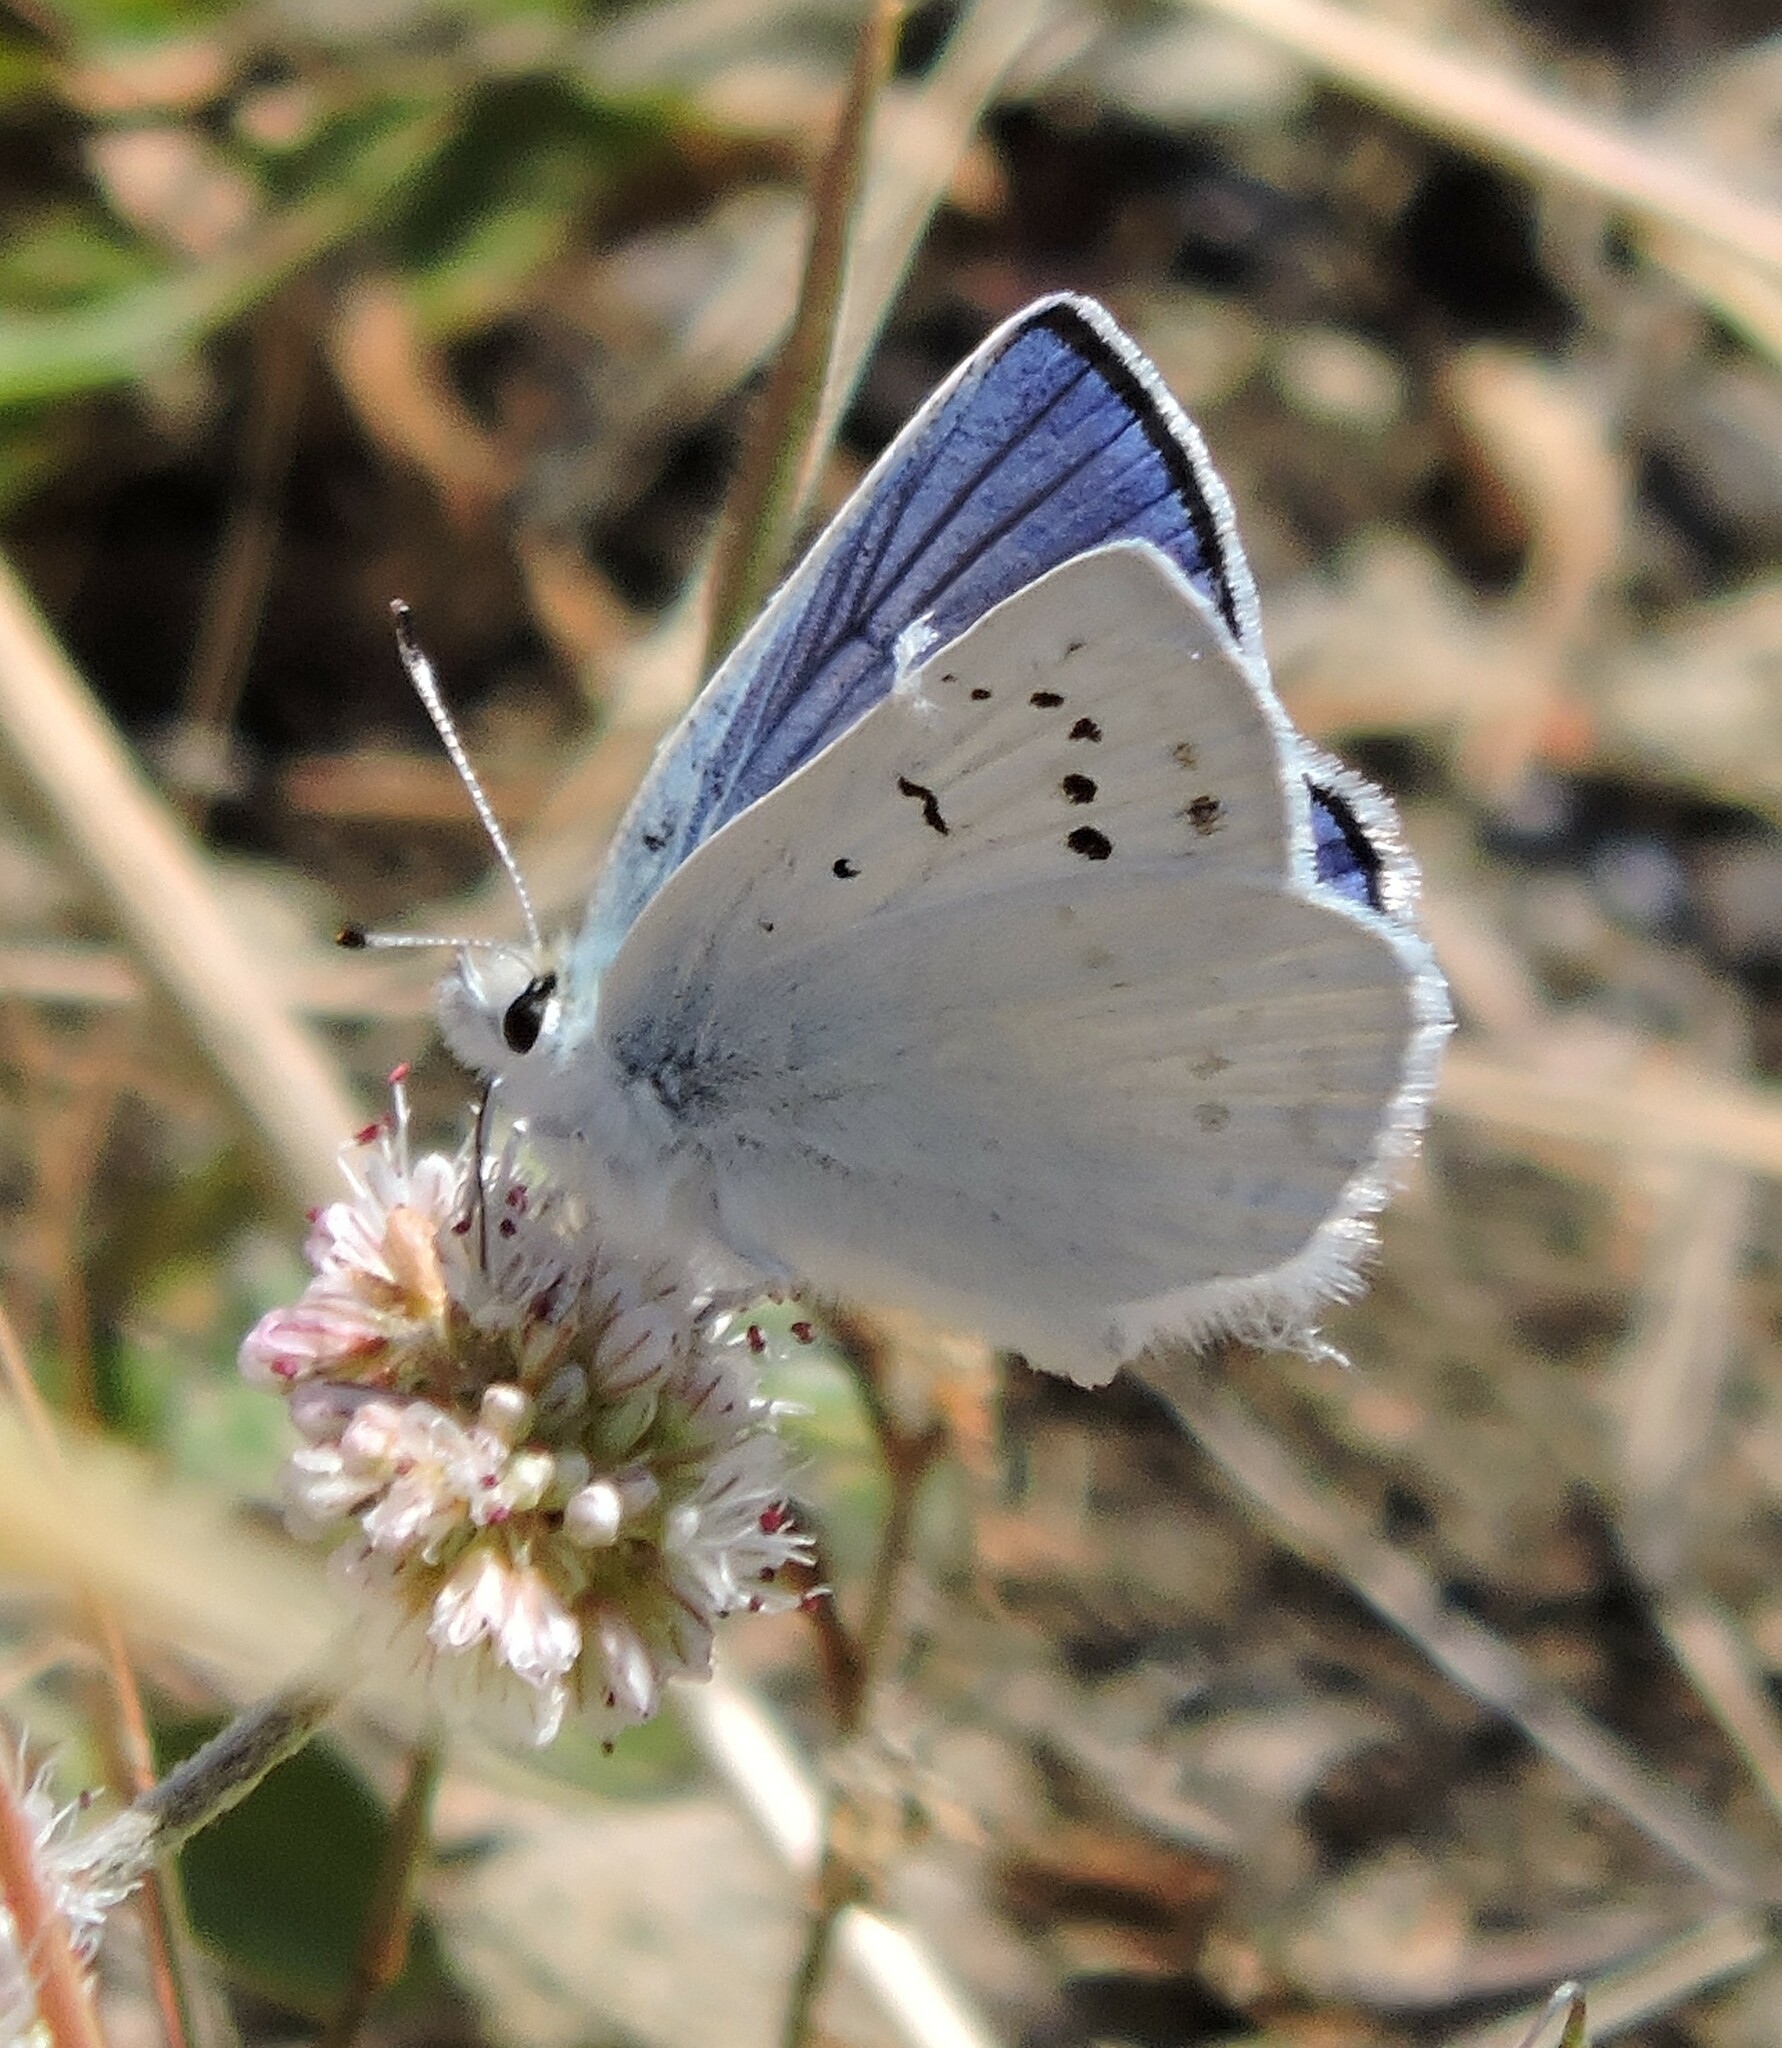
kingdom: Animalia
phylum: Arthropoda
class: Insecta
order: Lepidoptera
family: Lycaenidae
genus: Tharsalea
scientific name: Tharsalea heteronea
